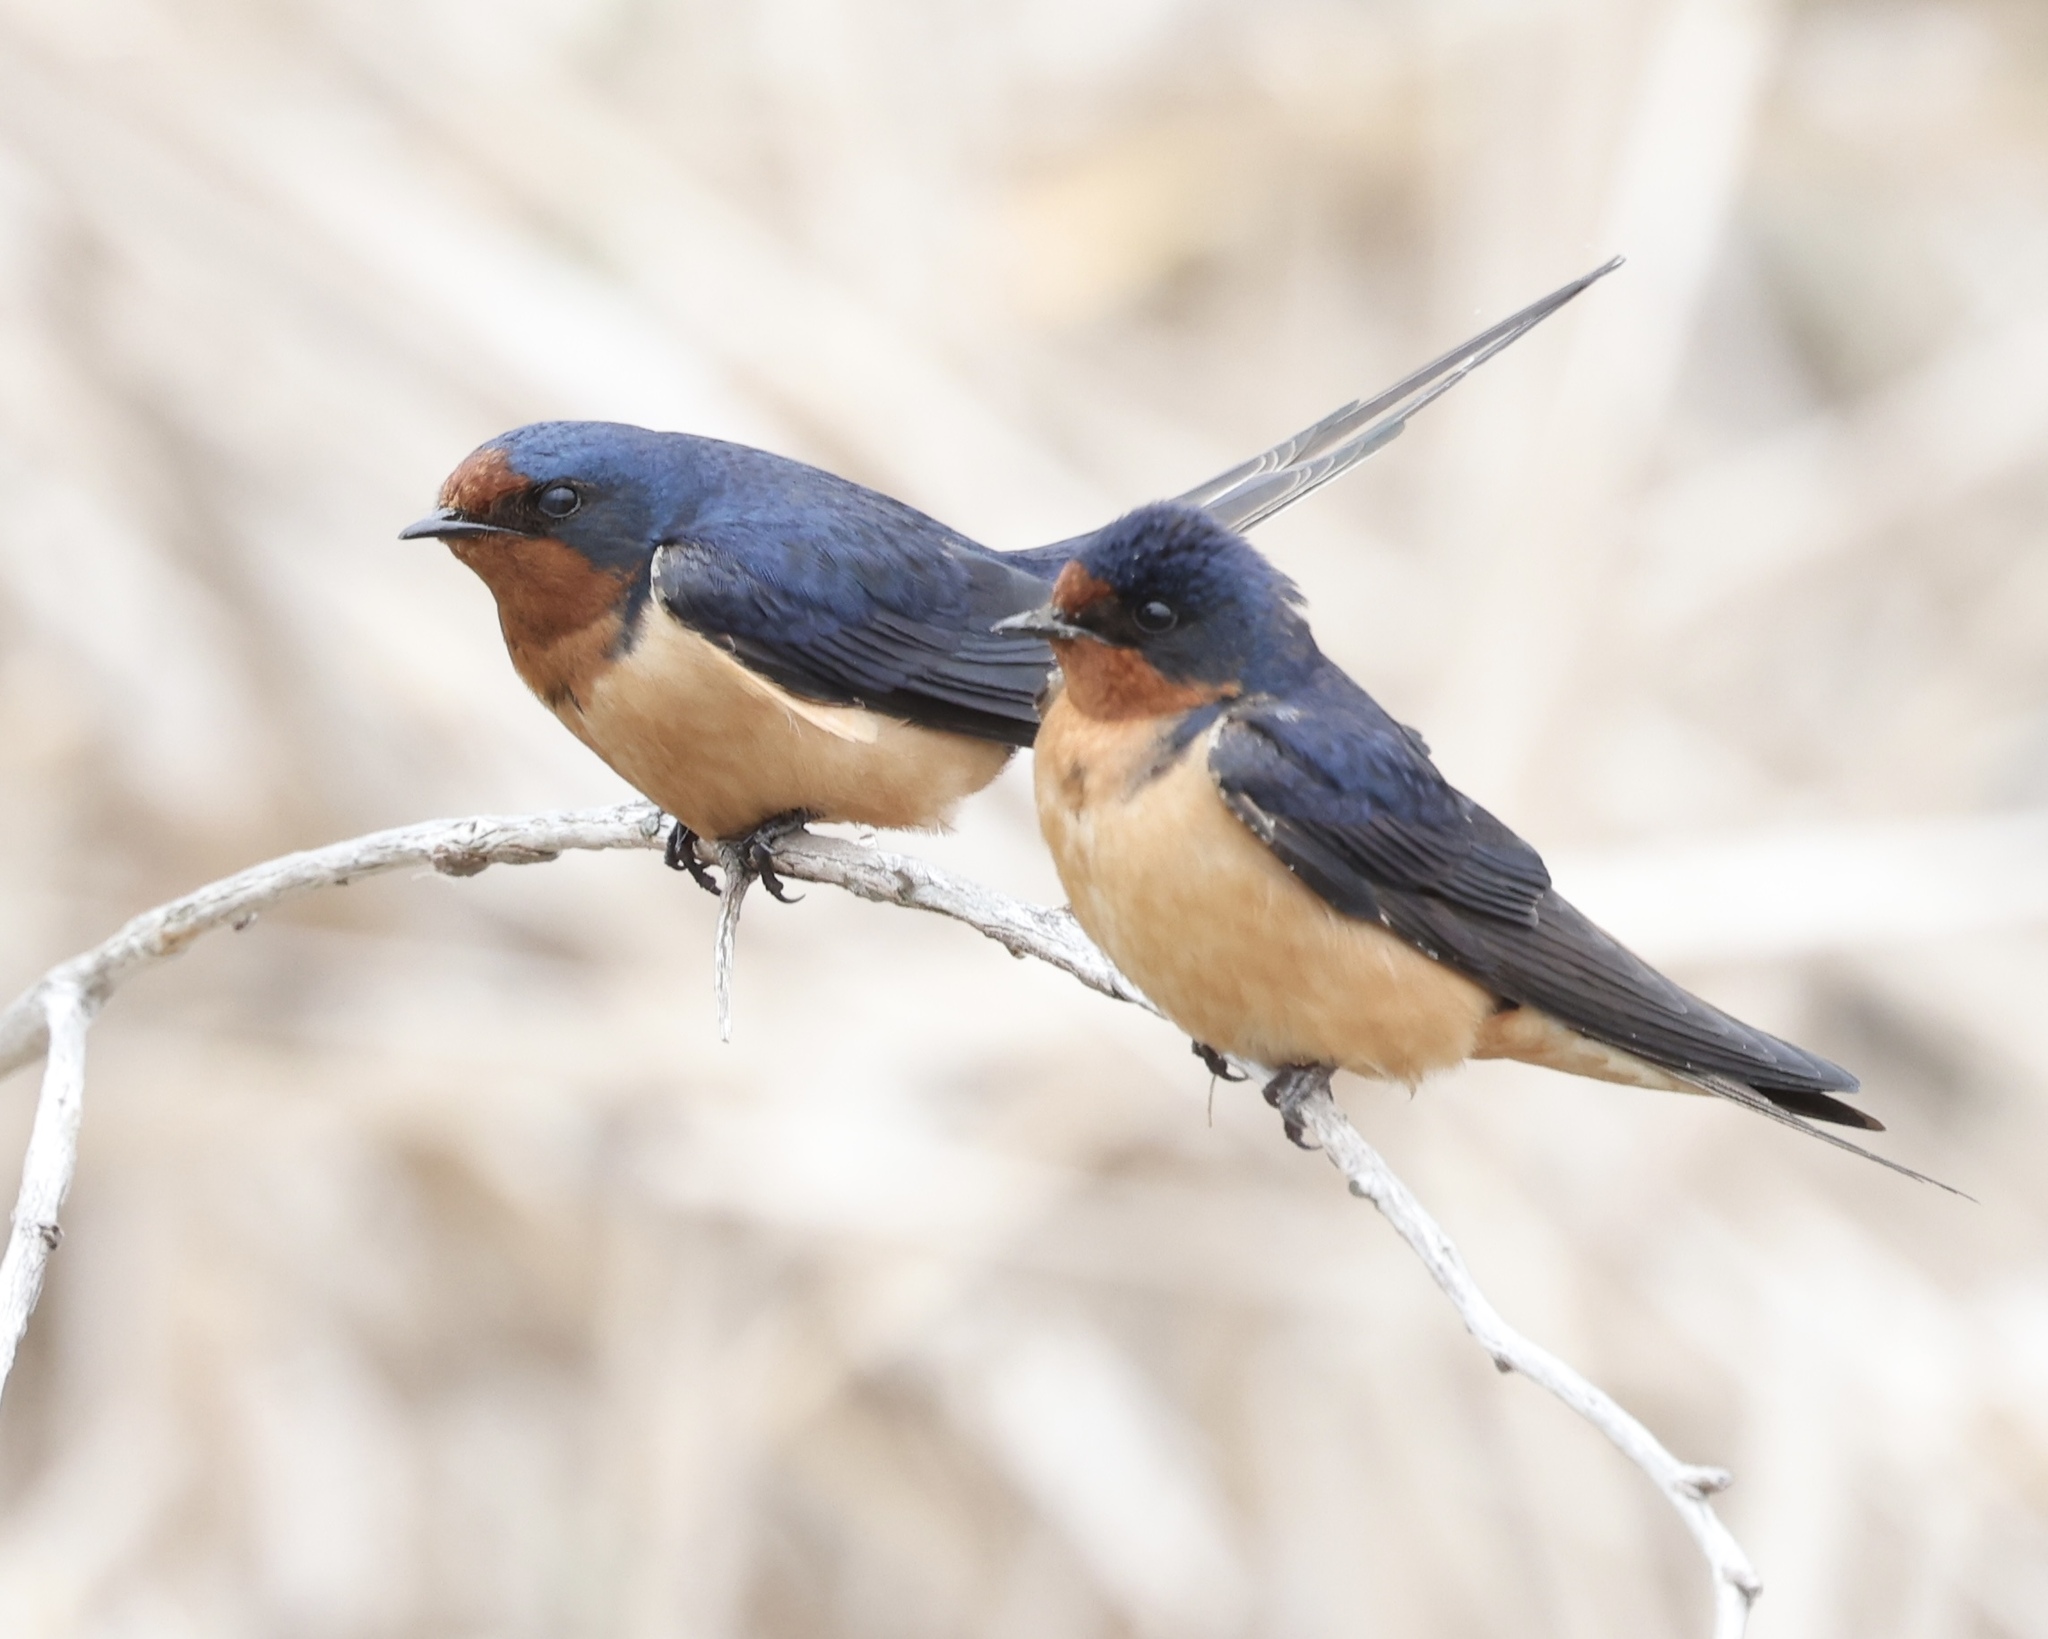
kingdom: Animalia
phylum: Chordata
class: Aves
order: Passeriformes
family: Hirundinidae
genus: Hirundo
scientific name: Hirundo rustica
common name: Barn swallow
